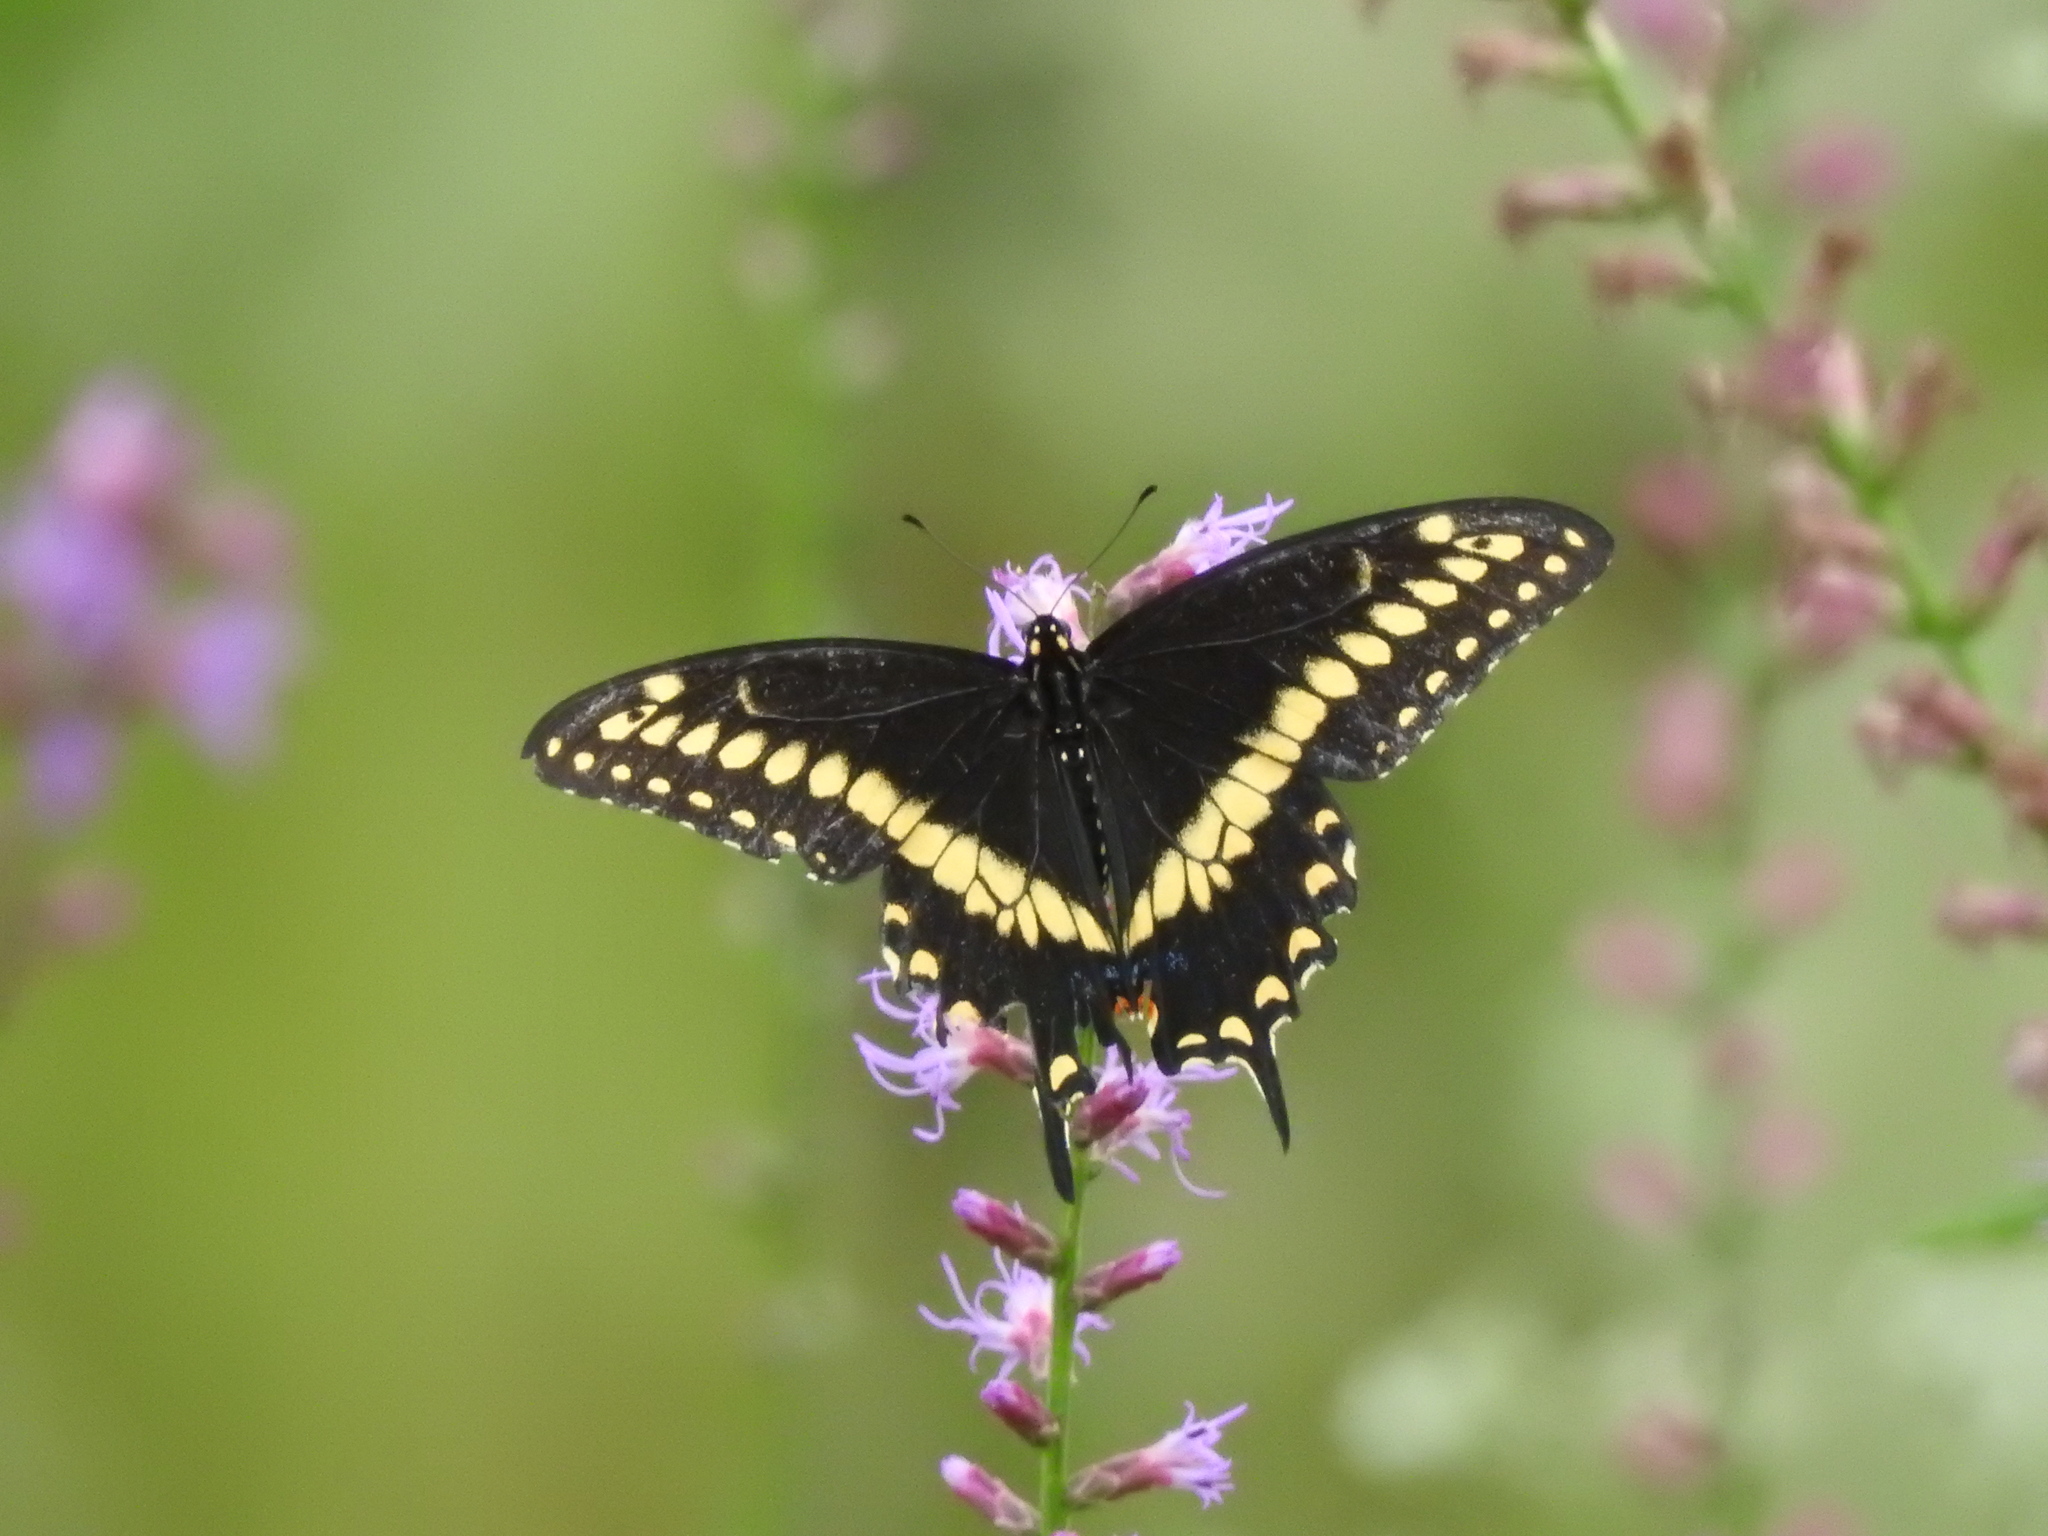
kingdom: Animalia
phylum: Arthropoda
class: Insecta
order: Lepidoptera
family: Papilionidae
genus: Papilio
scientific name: Papilio polyxenes
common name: Black swallowtail
